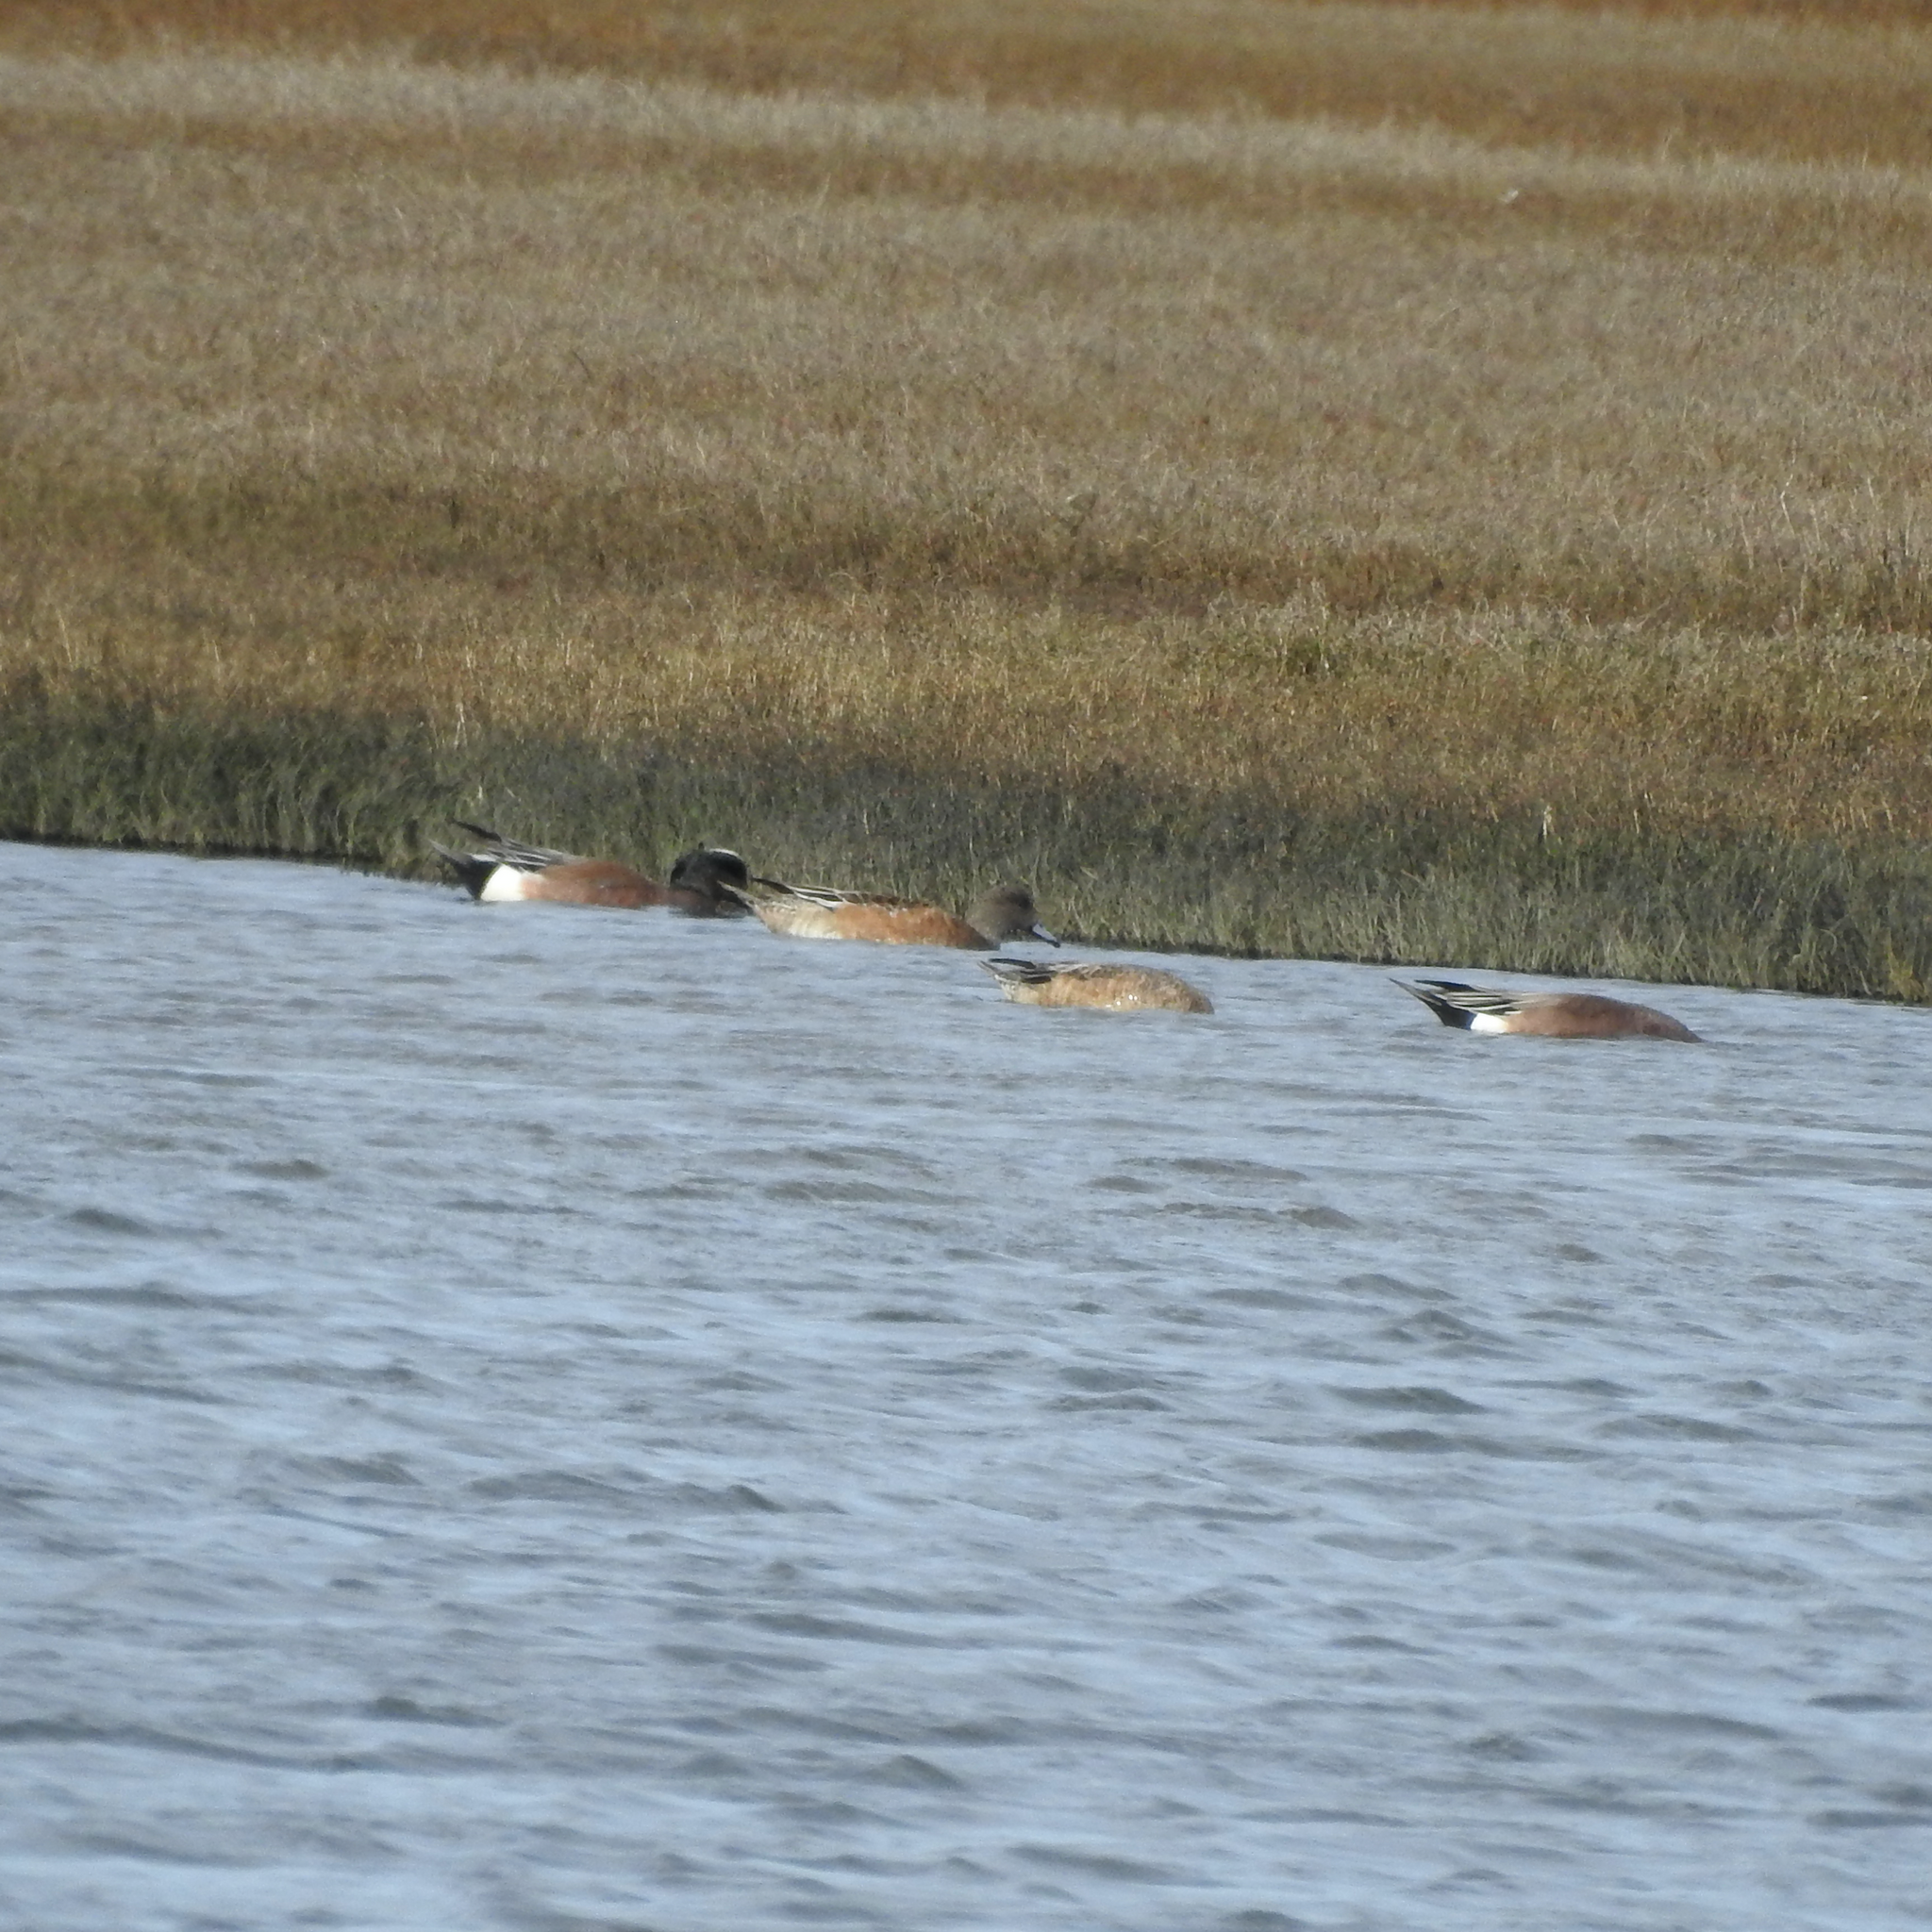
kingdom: Animalia
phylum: Chordata
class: Aves
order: Anseriformes
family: Anatidae
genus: Mareca
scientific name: Mareca americana
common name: American wigeon
